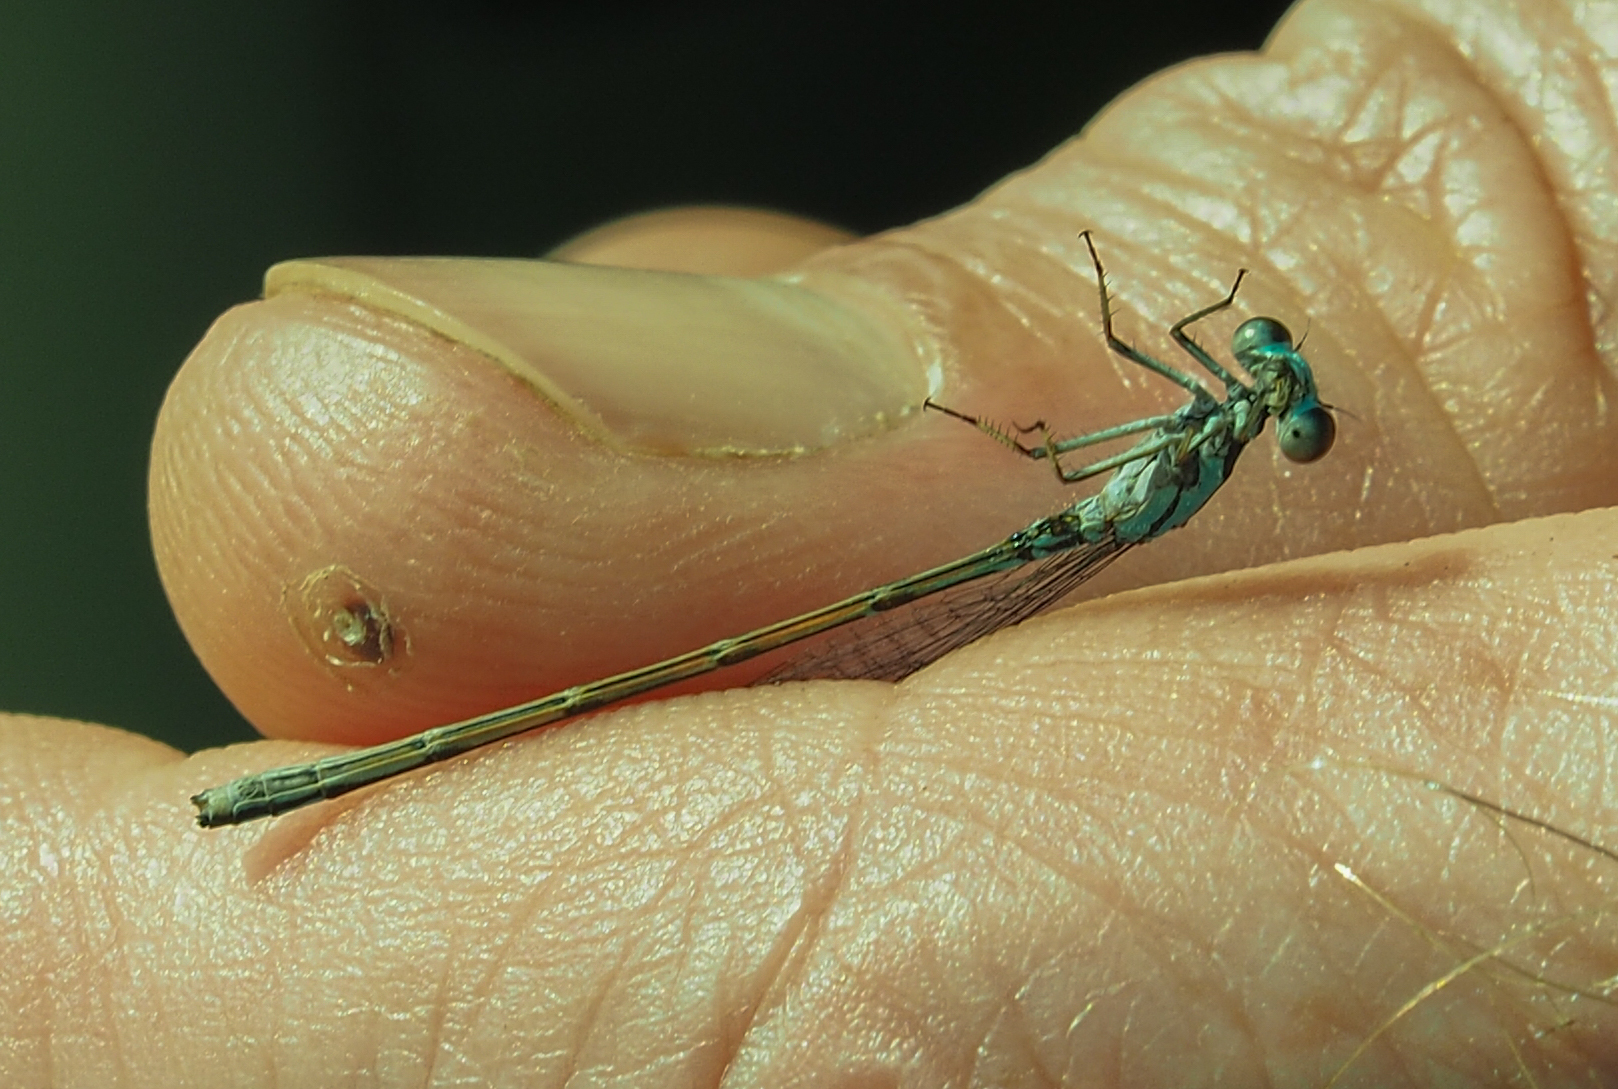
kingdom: Animalia
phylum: Arthropoda
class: Insecta
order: Odonata
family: Coenagrionidae
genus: Enallagma
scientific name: Enallagma geminatum
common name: Skimming bluet
